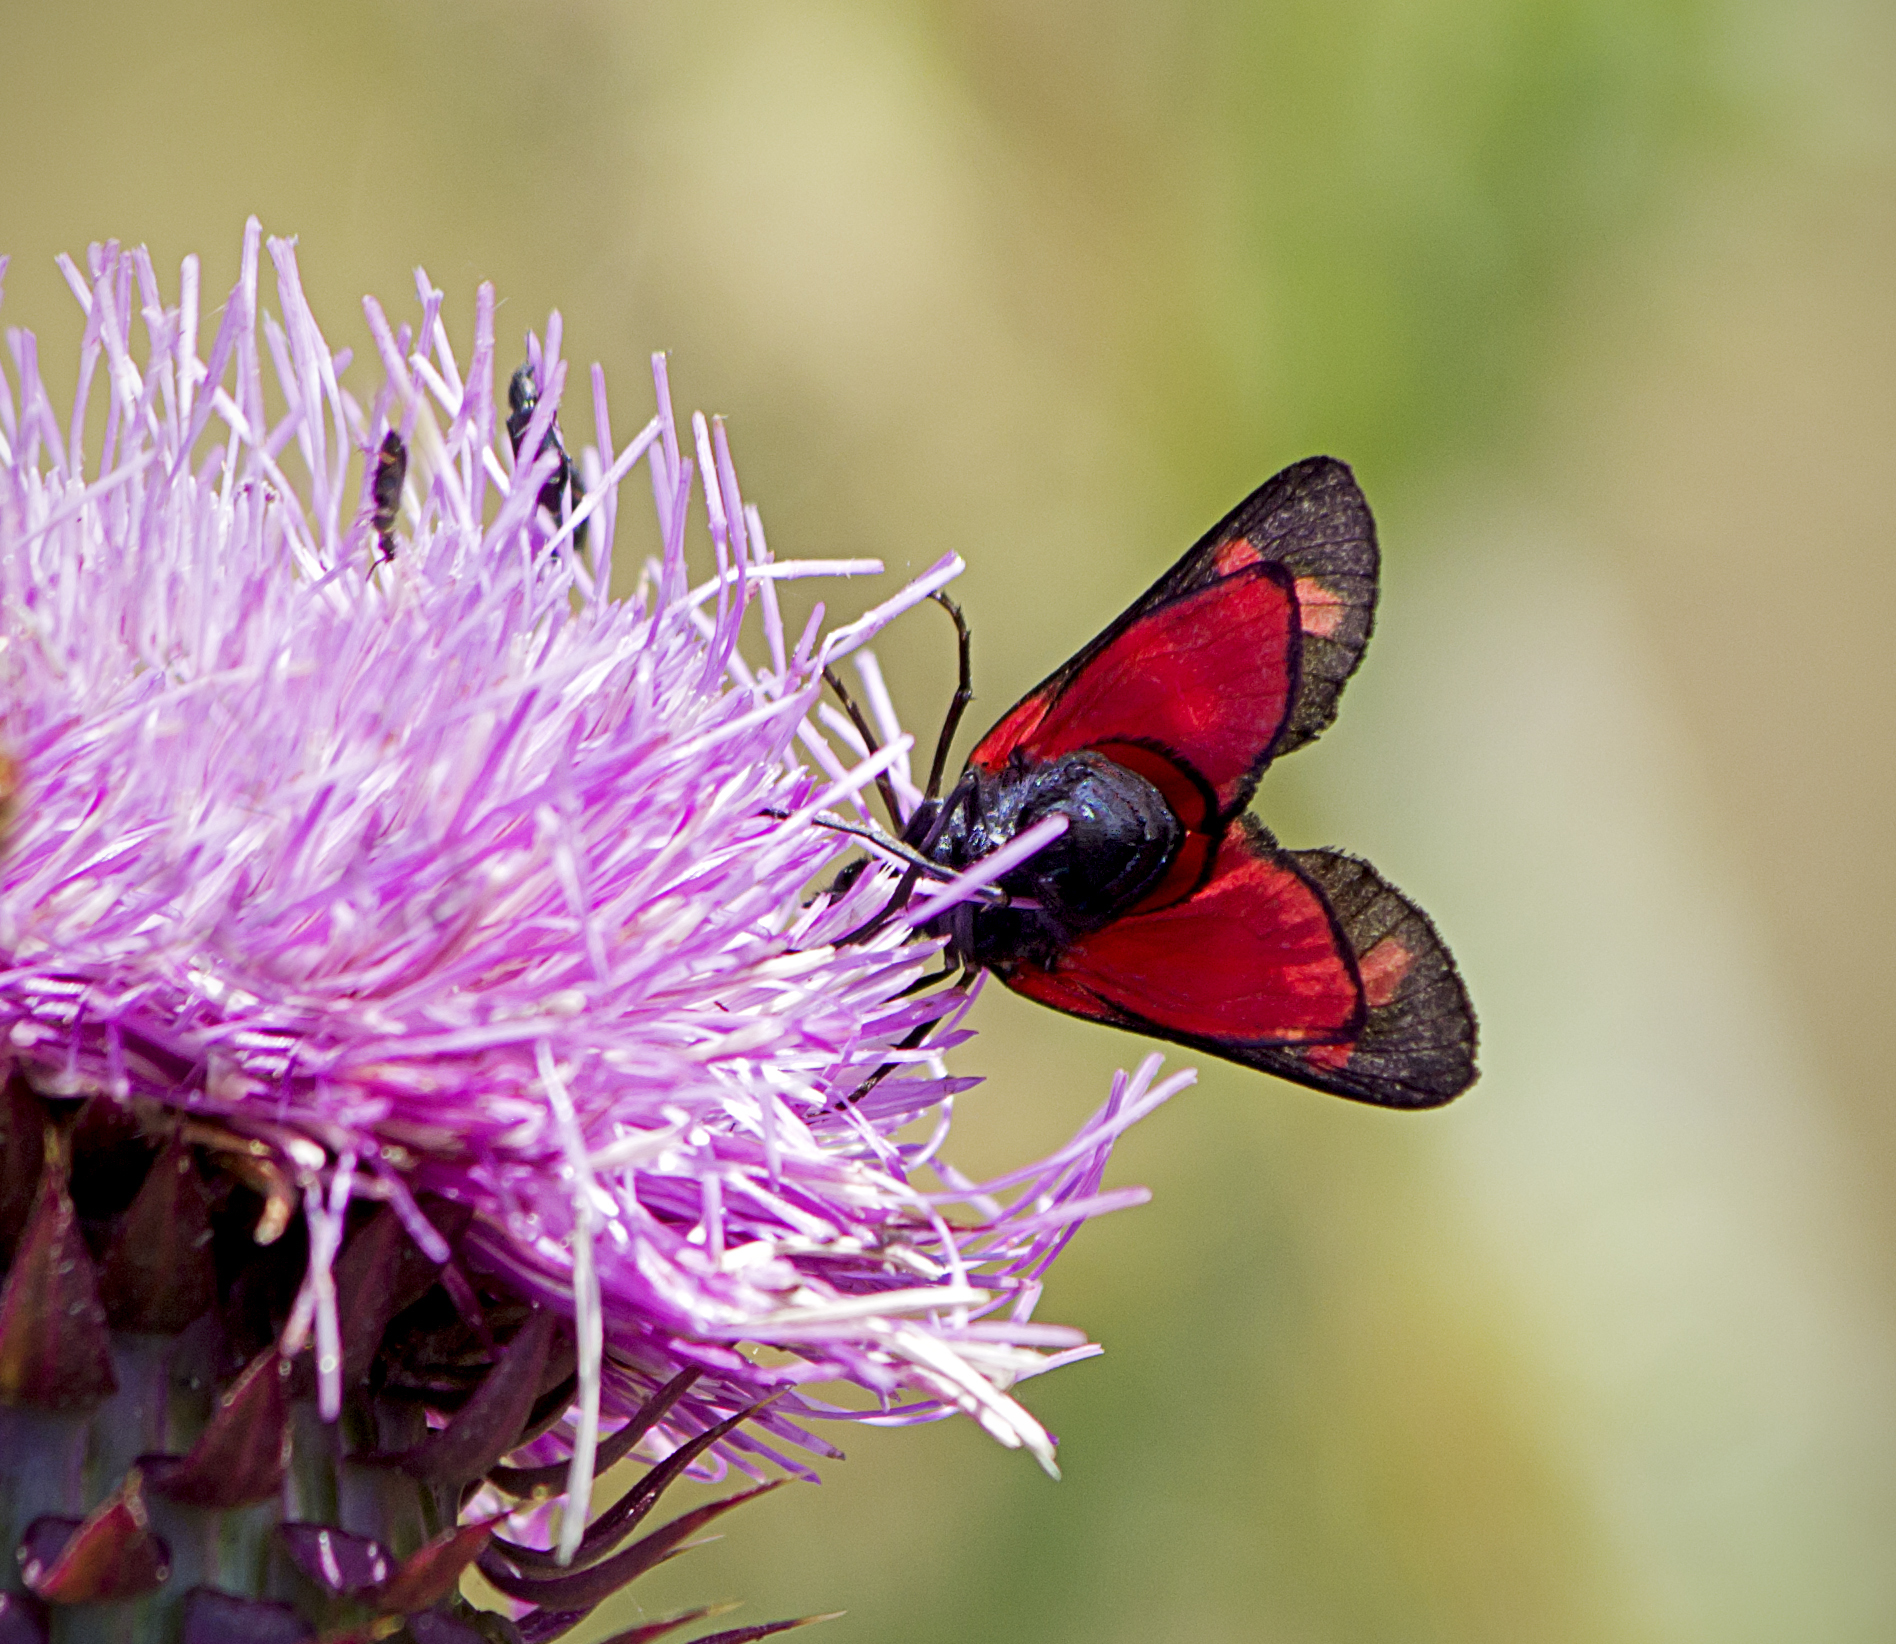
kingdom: Animalia
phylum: Arthropoda
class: Insecta
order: Lepidoptera
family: Zygaenidae
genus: Zygaena
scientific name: Zygaena filipendulae
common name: Six-spot burnet
